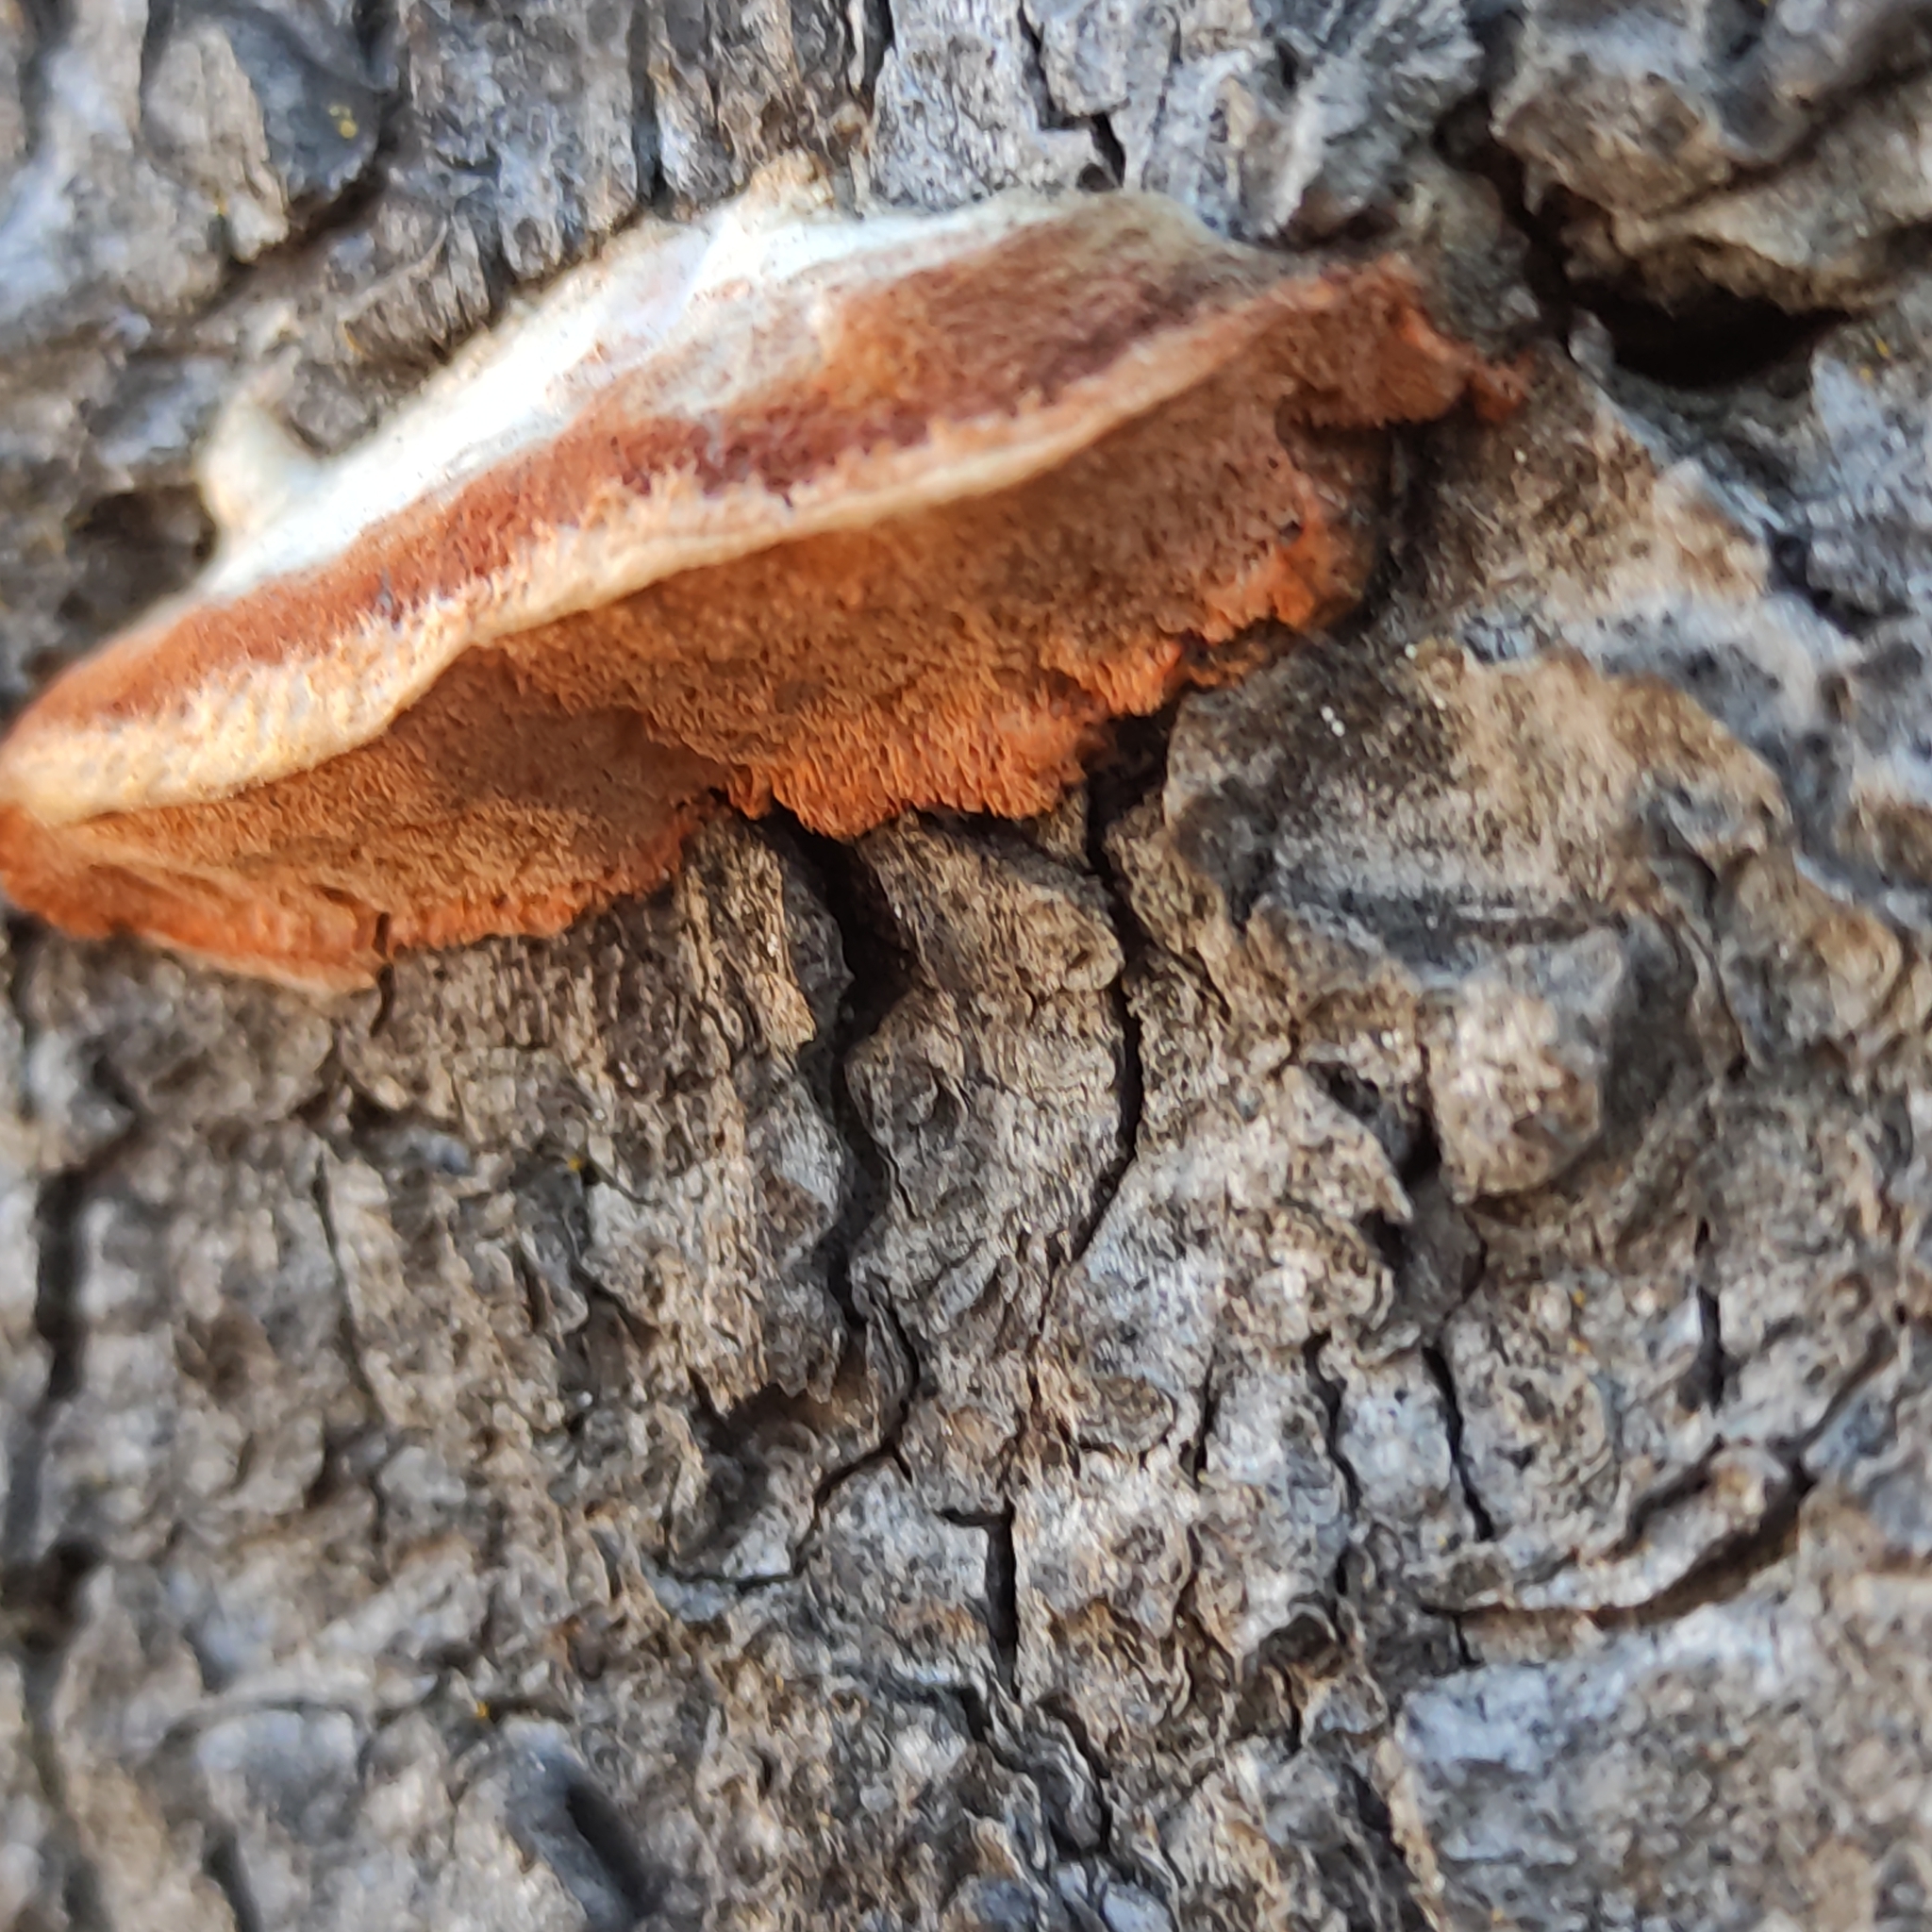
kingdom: Fungi
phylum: Basidiomycota
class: Agaricomycetes
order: Polyporales
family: Polyporaceae
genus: Trametes
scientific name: Trametes coccinea
